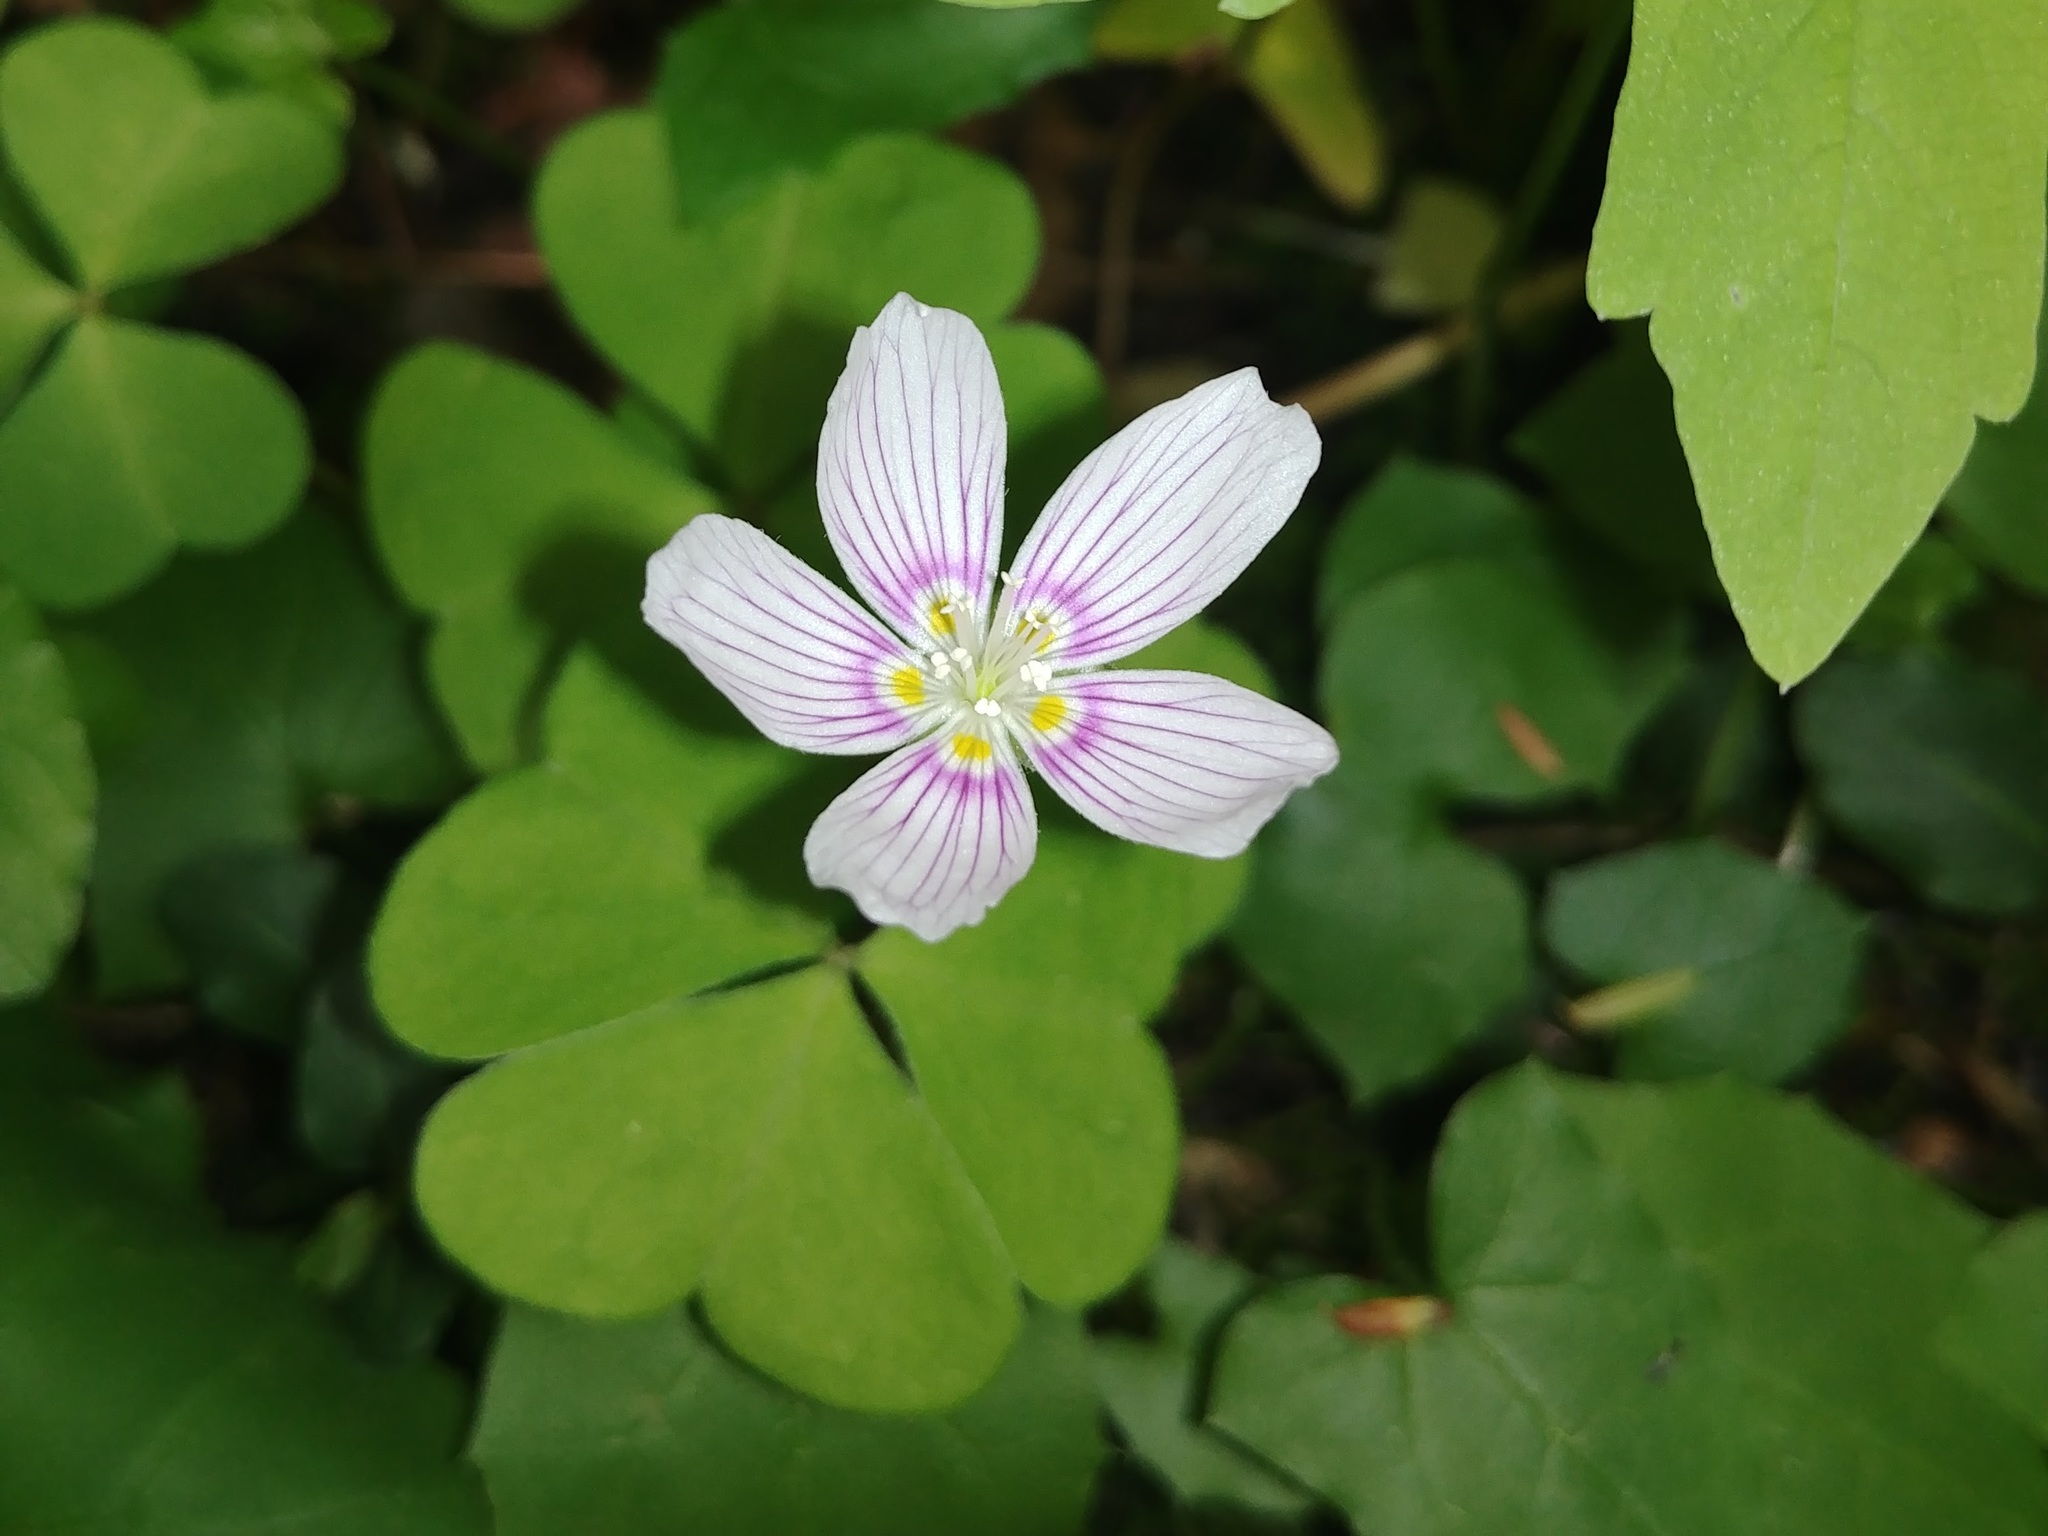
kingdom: Plantae
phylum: Tracheophyta
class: Magnoliopsida
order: Oxalidales
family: Oxalidaceae
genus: Oxalis
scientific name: Oxalis montana
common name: American wood-sorrel
